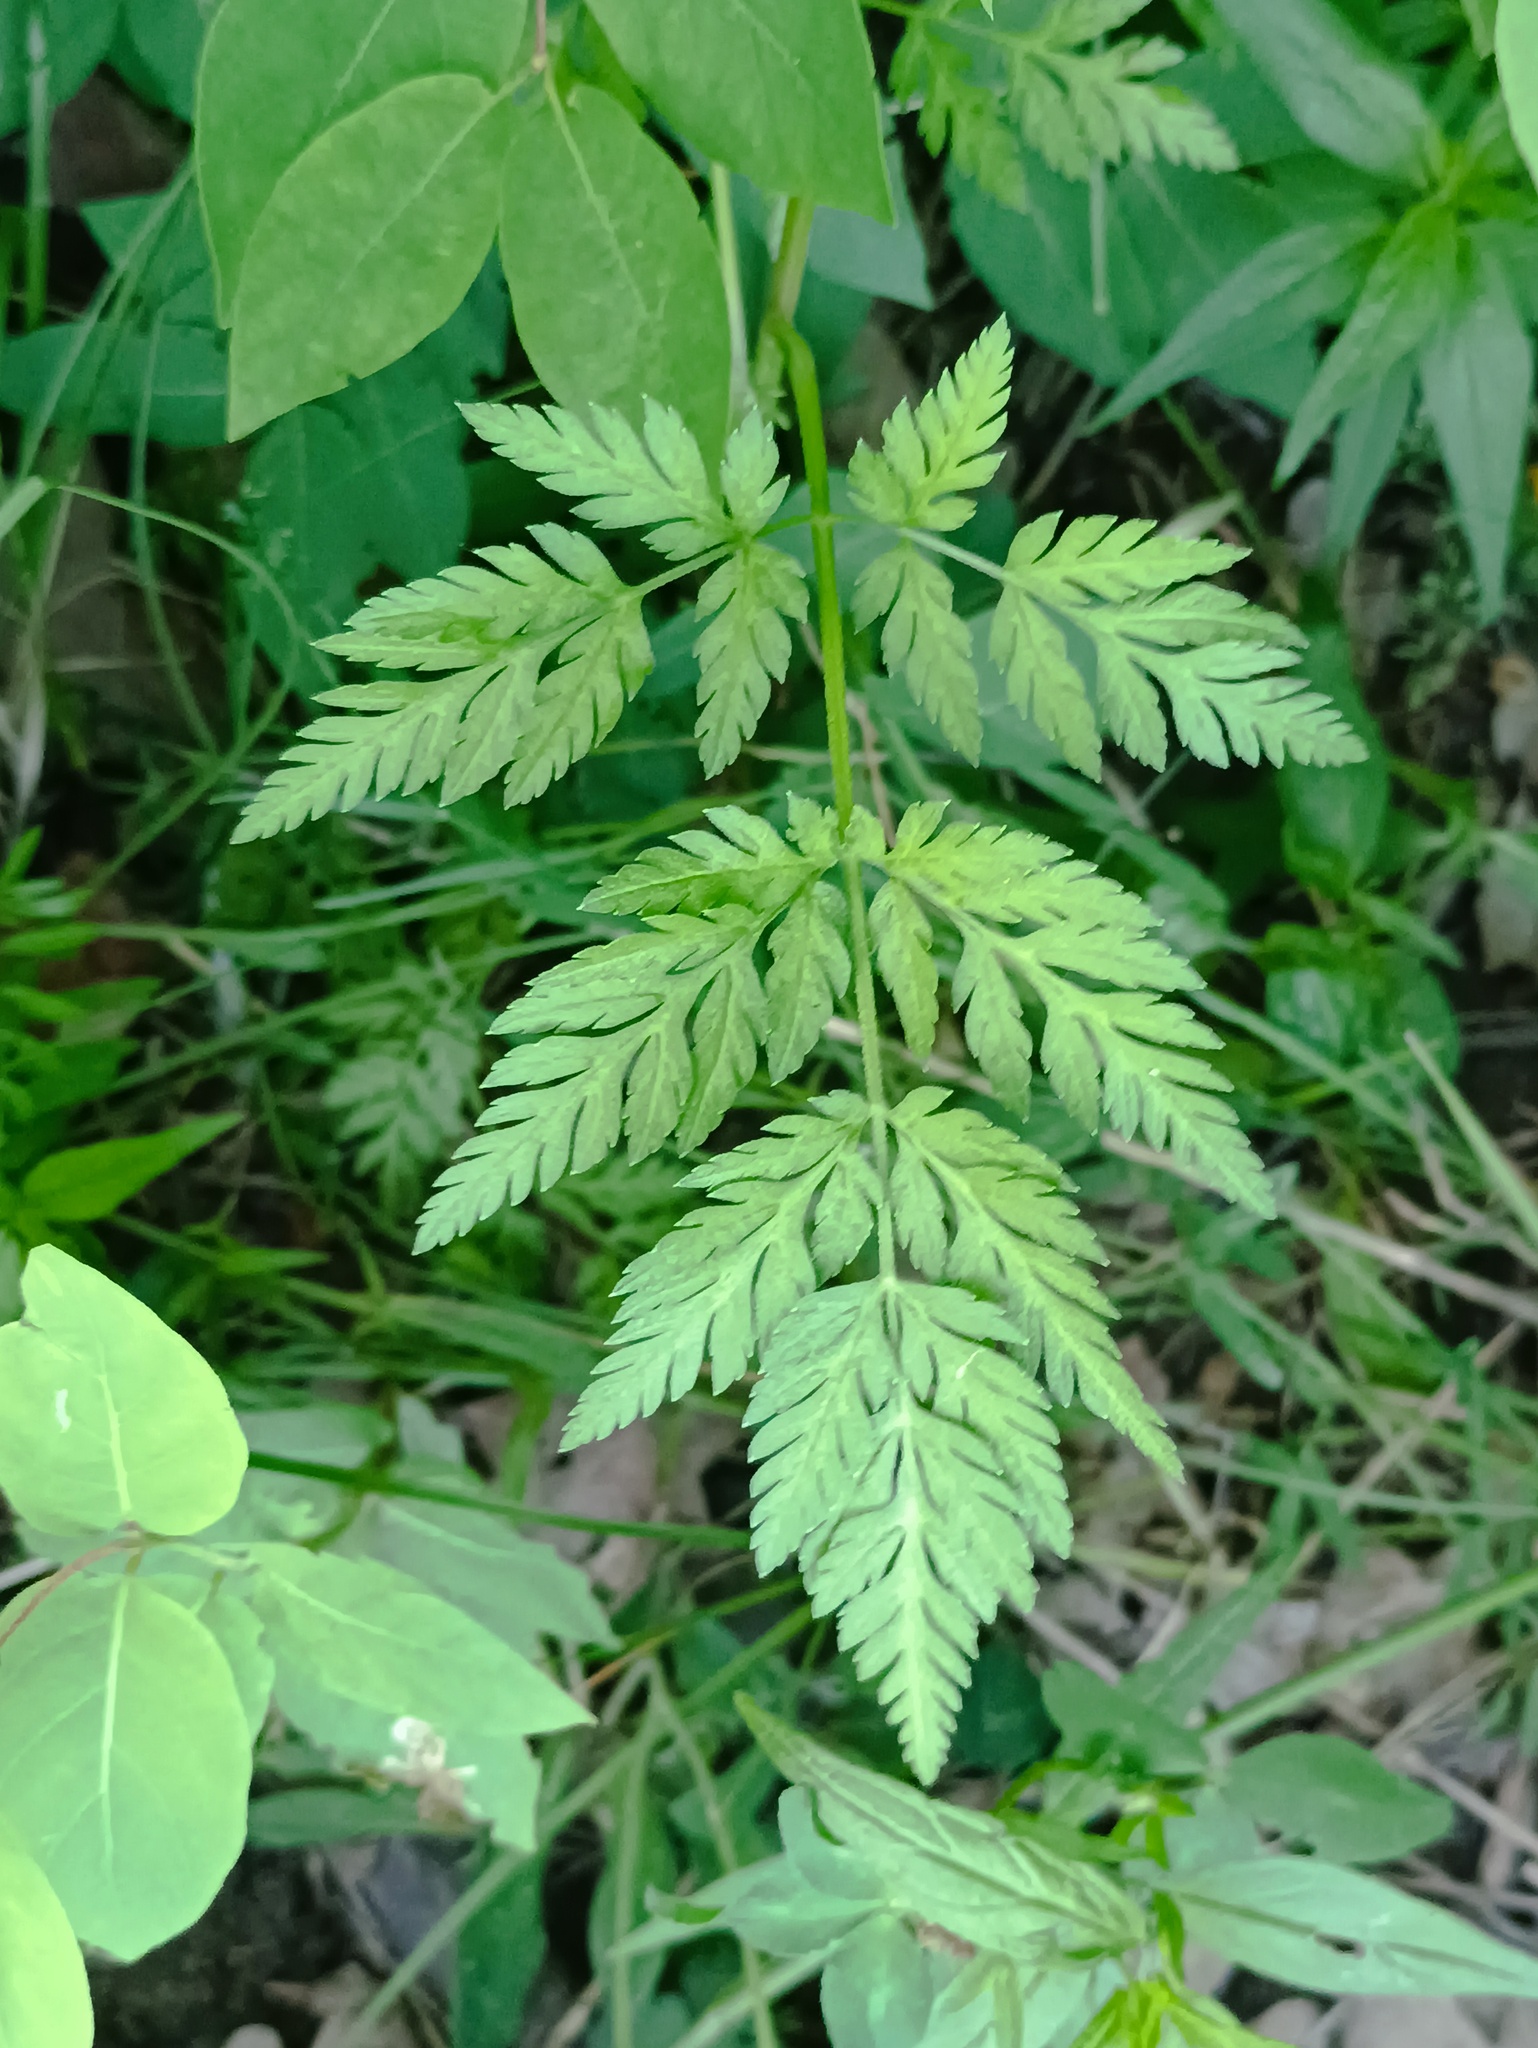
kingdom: Plantae
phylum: Tracheophyta
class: Magnoliopsida
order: Apiales
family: Apiaceae
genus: Torilis
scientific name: Torilis japonica
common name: Upright hedge-parsley
